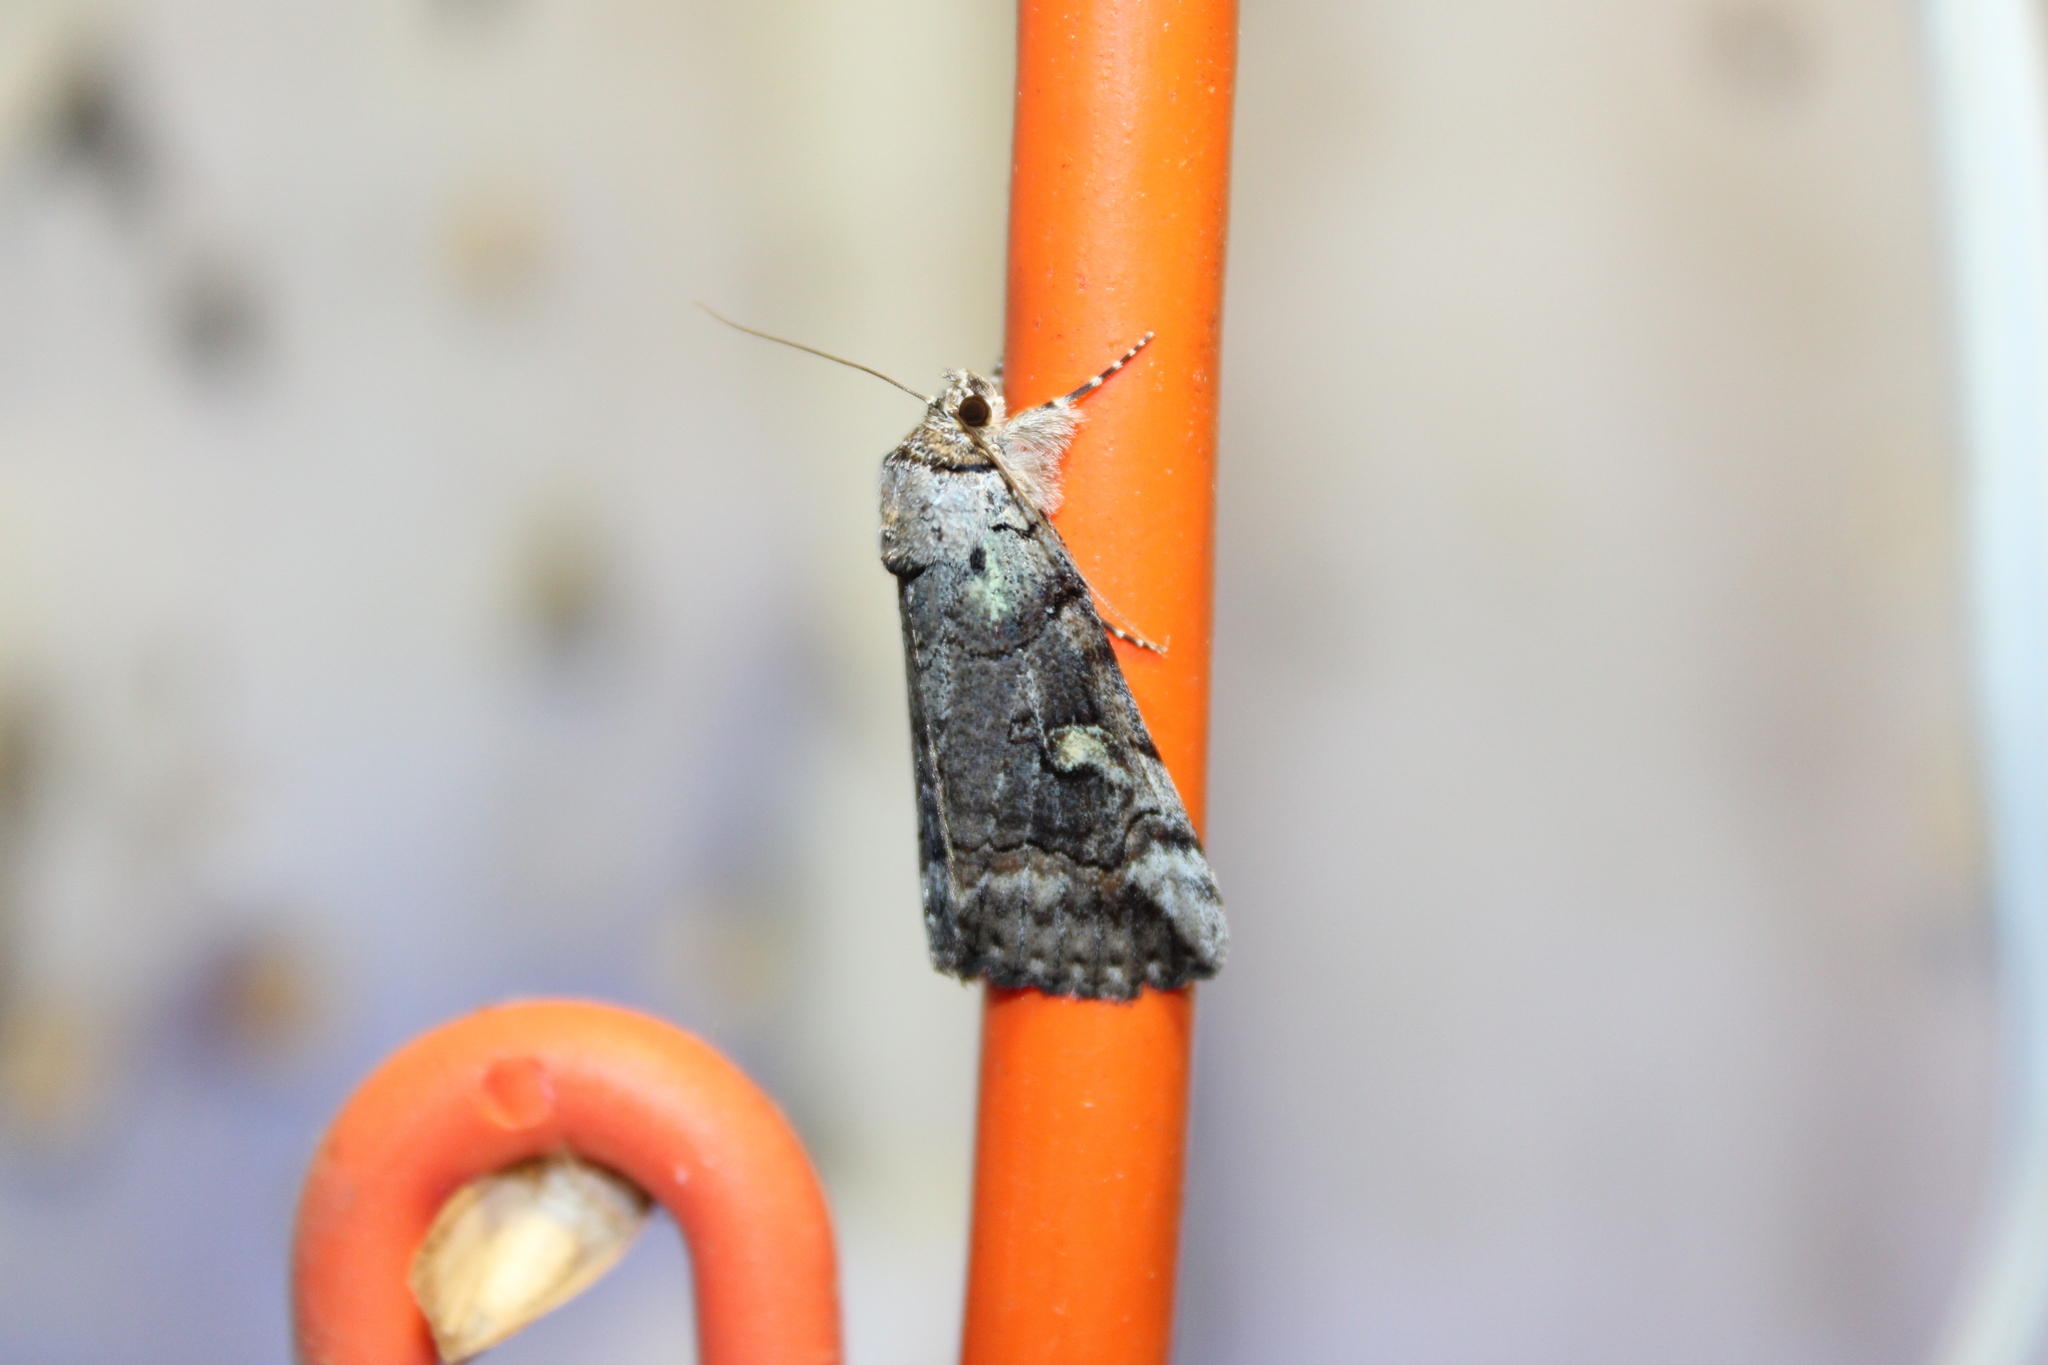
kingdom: Animalia
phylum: Arthropoda
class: Insecta
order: Lepidoptera
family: Erebidae
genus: Catocala
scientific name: Catocala similis
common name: Similar underwing
